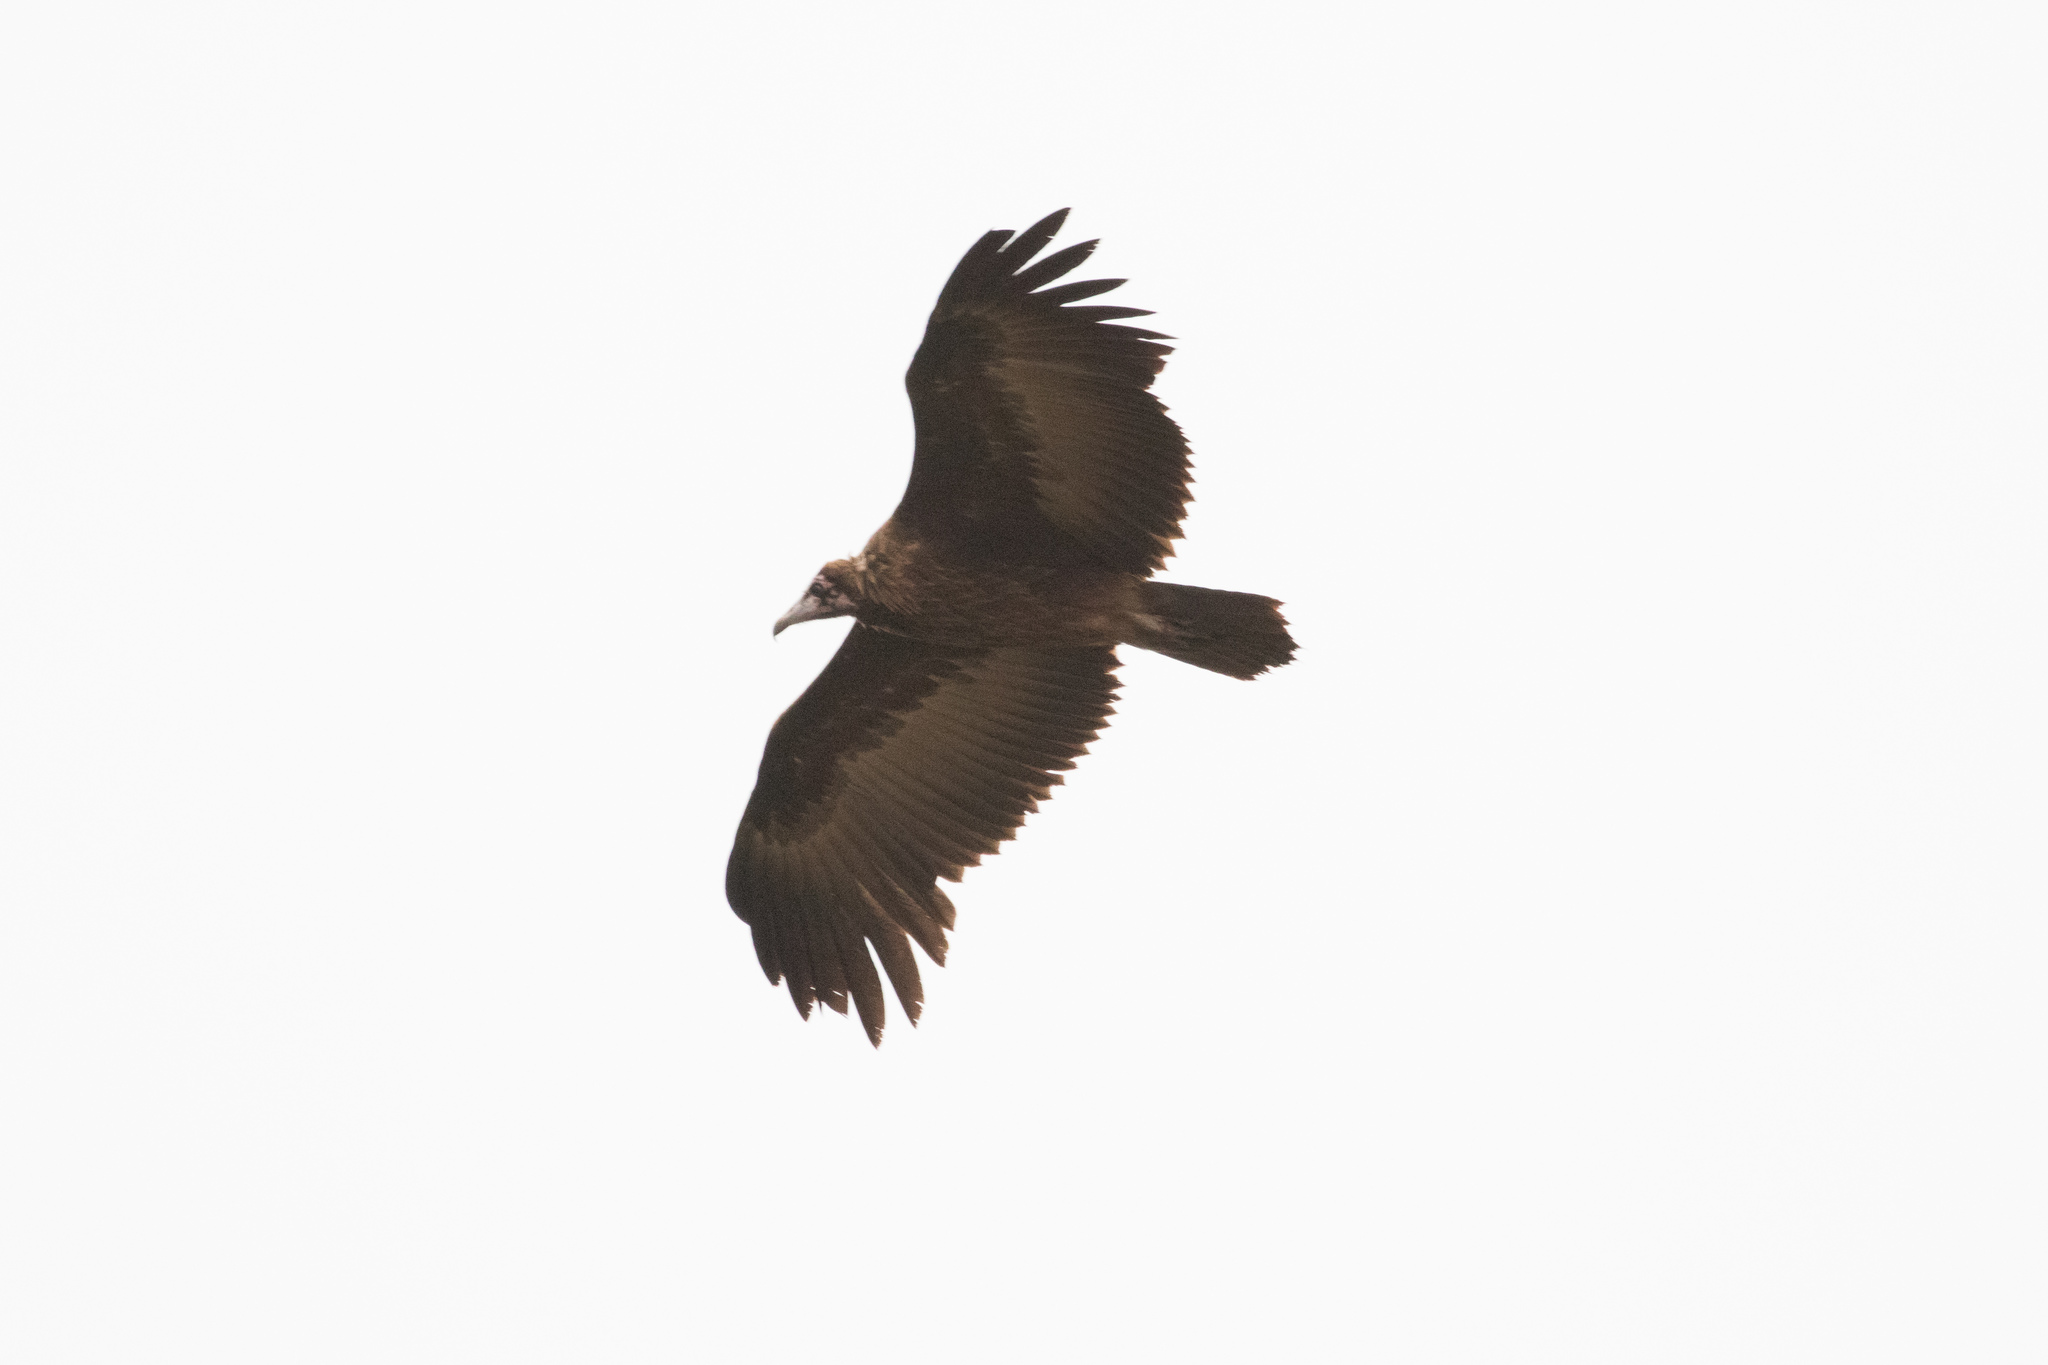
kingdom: Animalia
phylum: Chordata
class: Aves
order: Accipitriformes
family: Accipitridae
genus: Necrosyrtes
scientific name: Necrosyrtes monachus
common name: Hooded vulture
